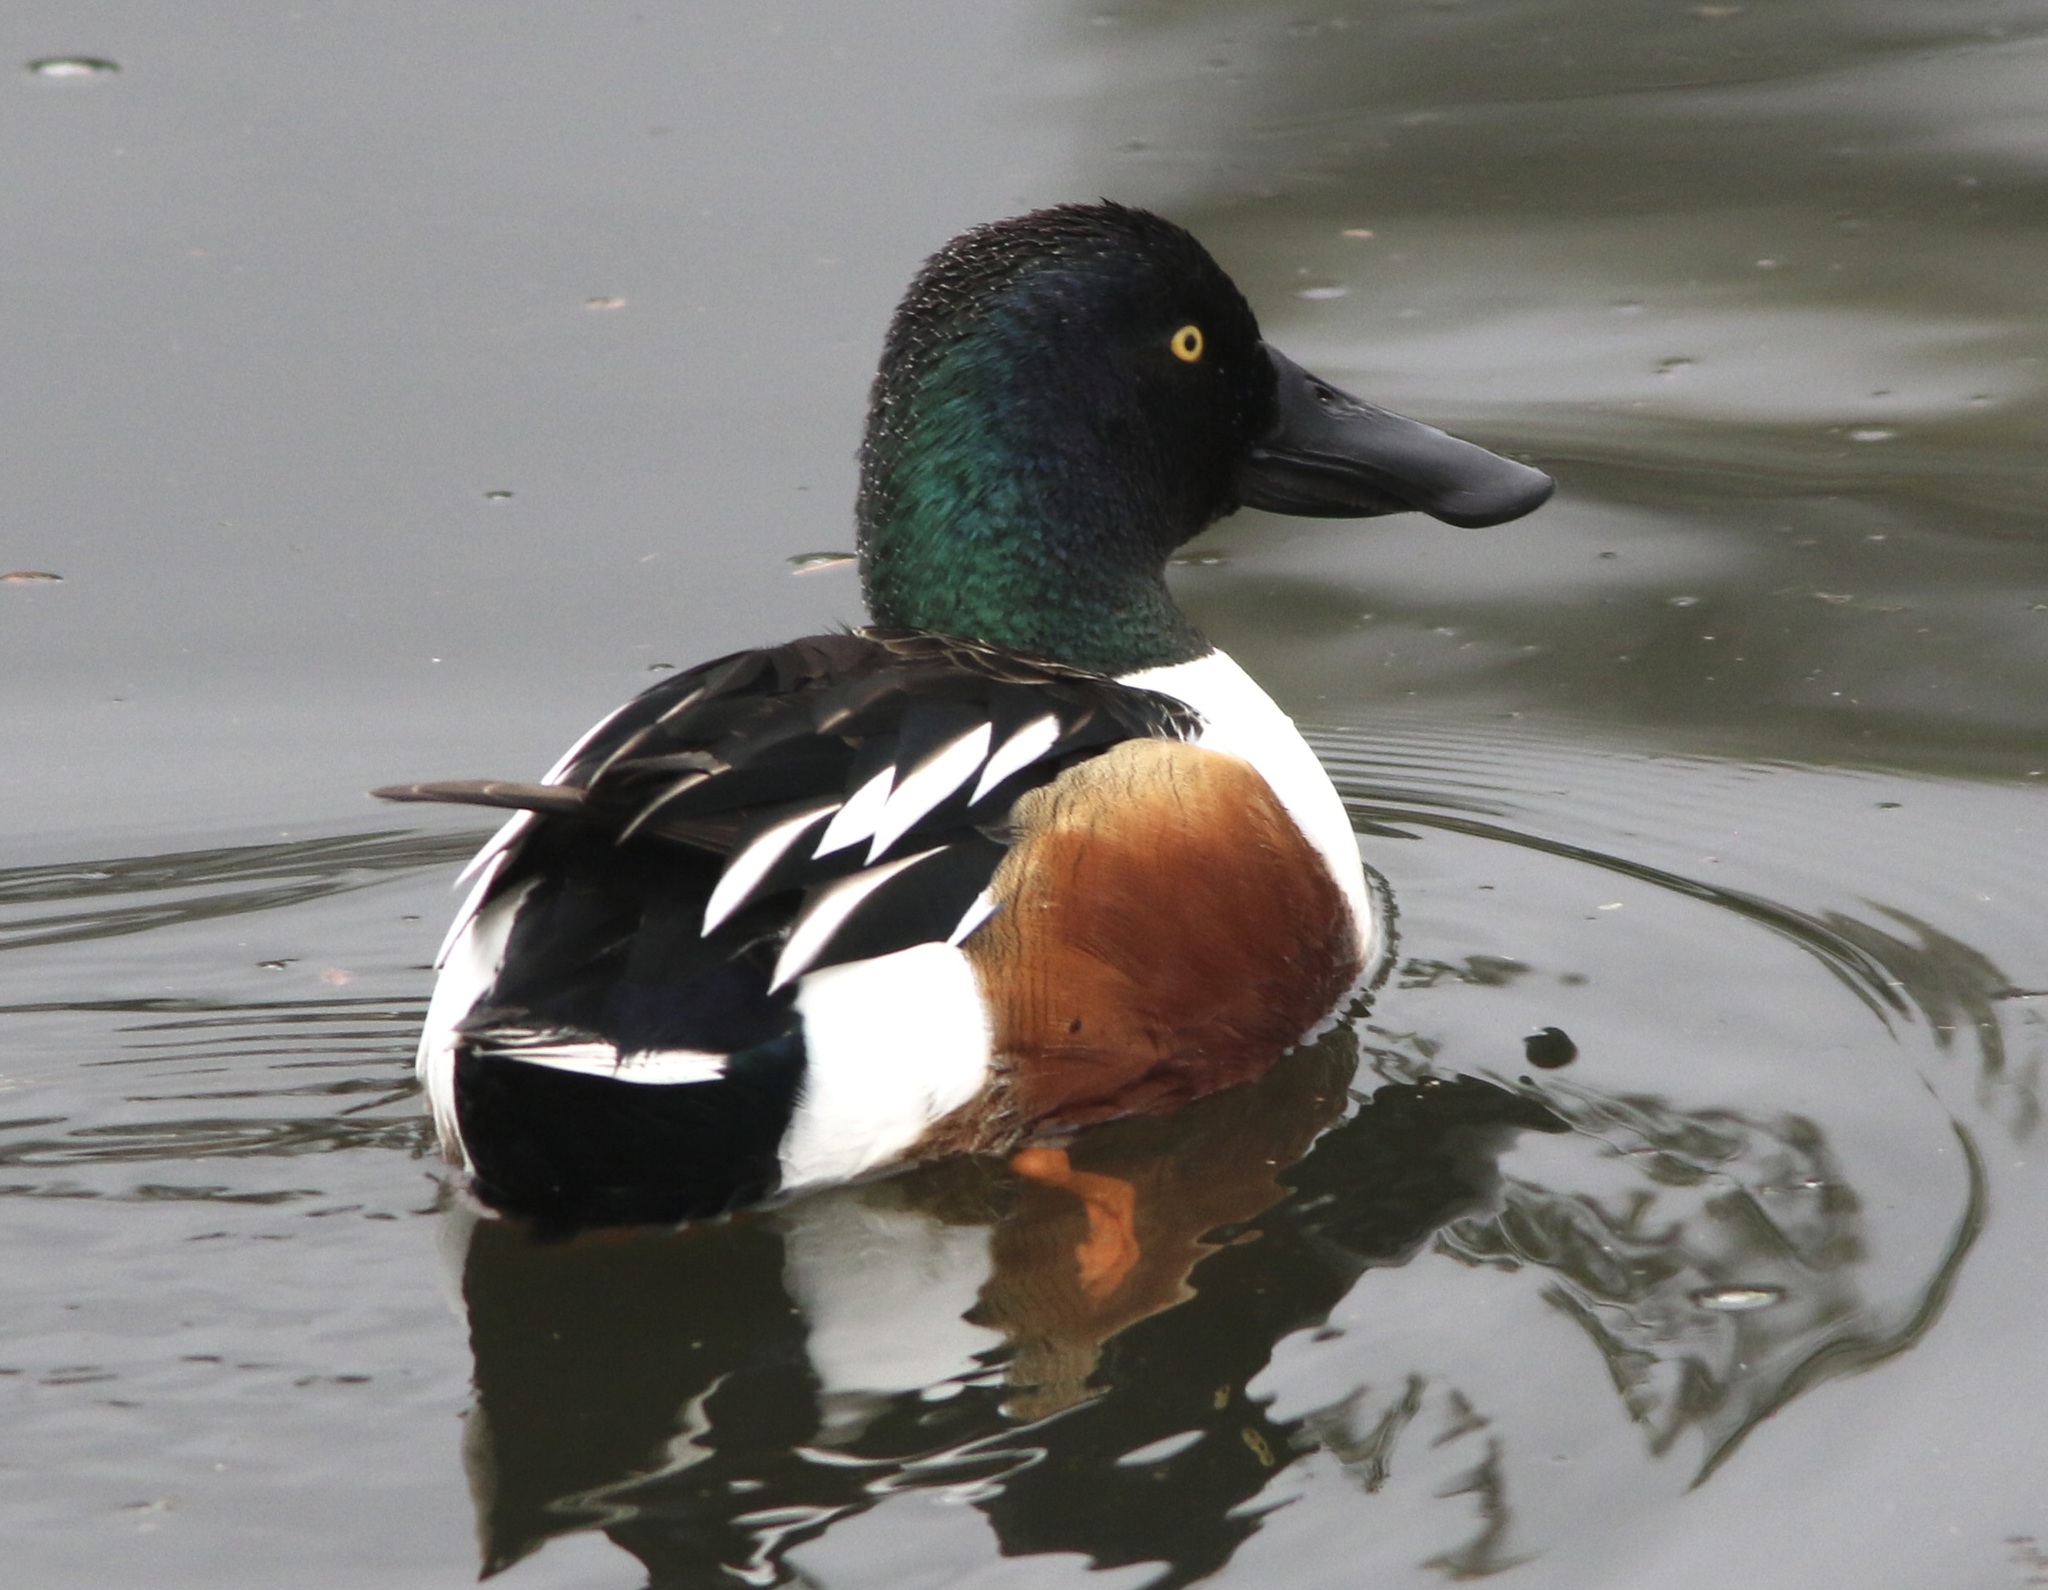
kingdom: Animalia
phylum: Chordata
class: Aves
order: Anseriformes
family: Anatidae
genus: Spatula
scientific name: Spatula clypeata
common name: Northern shoveler
